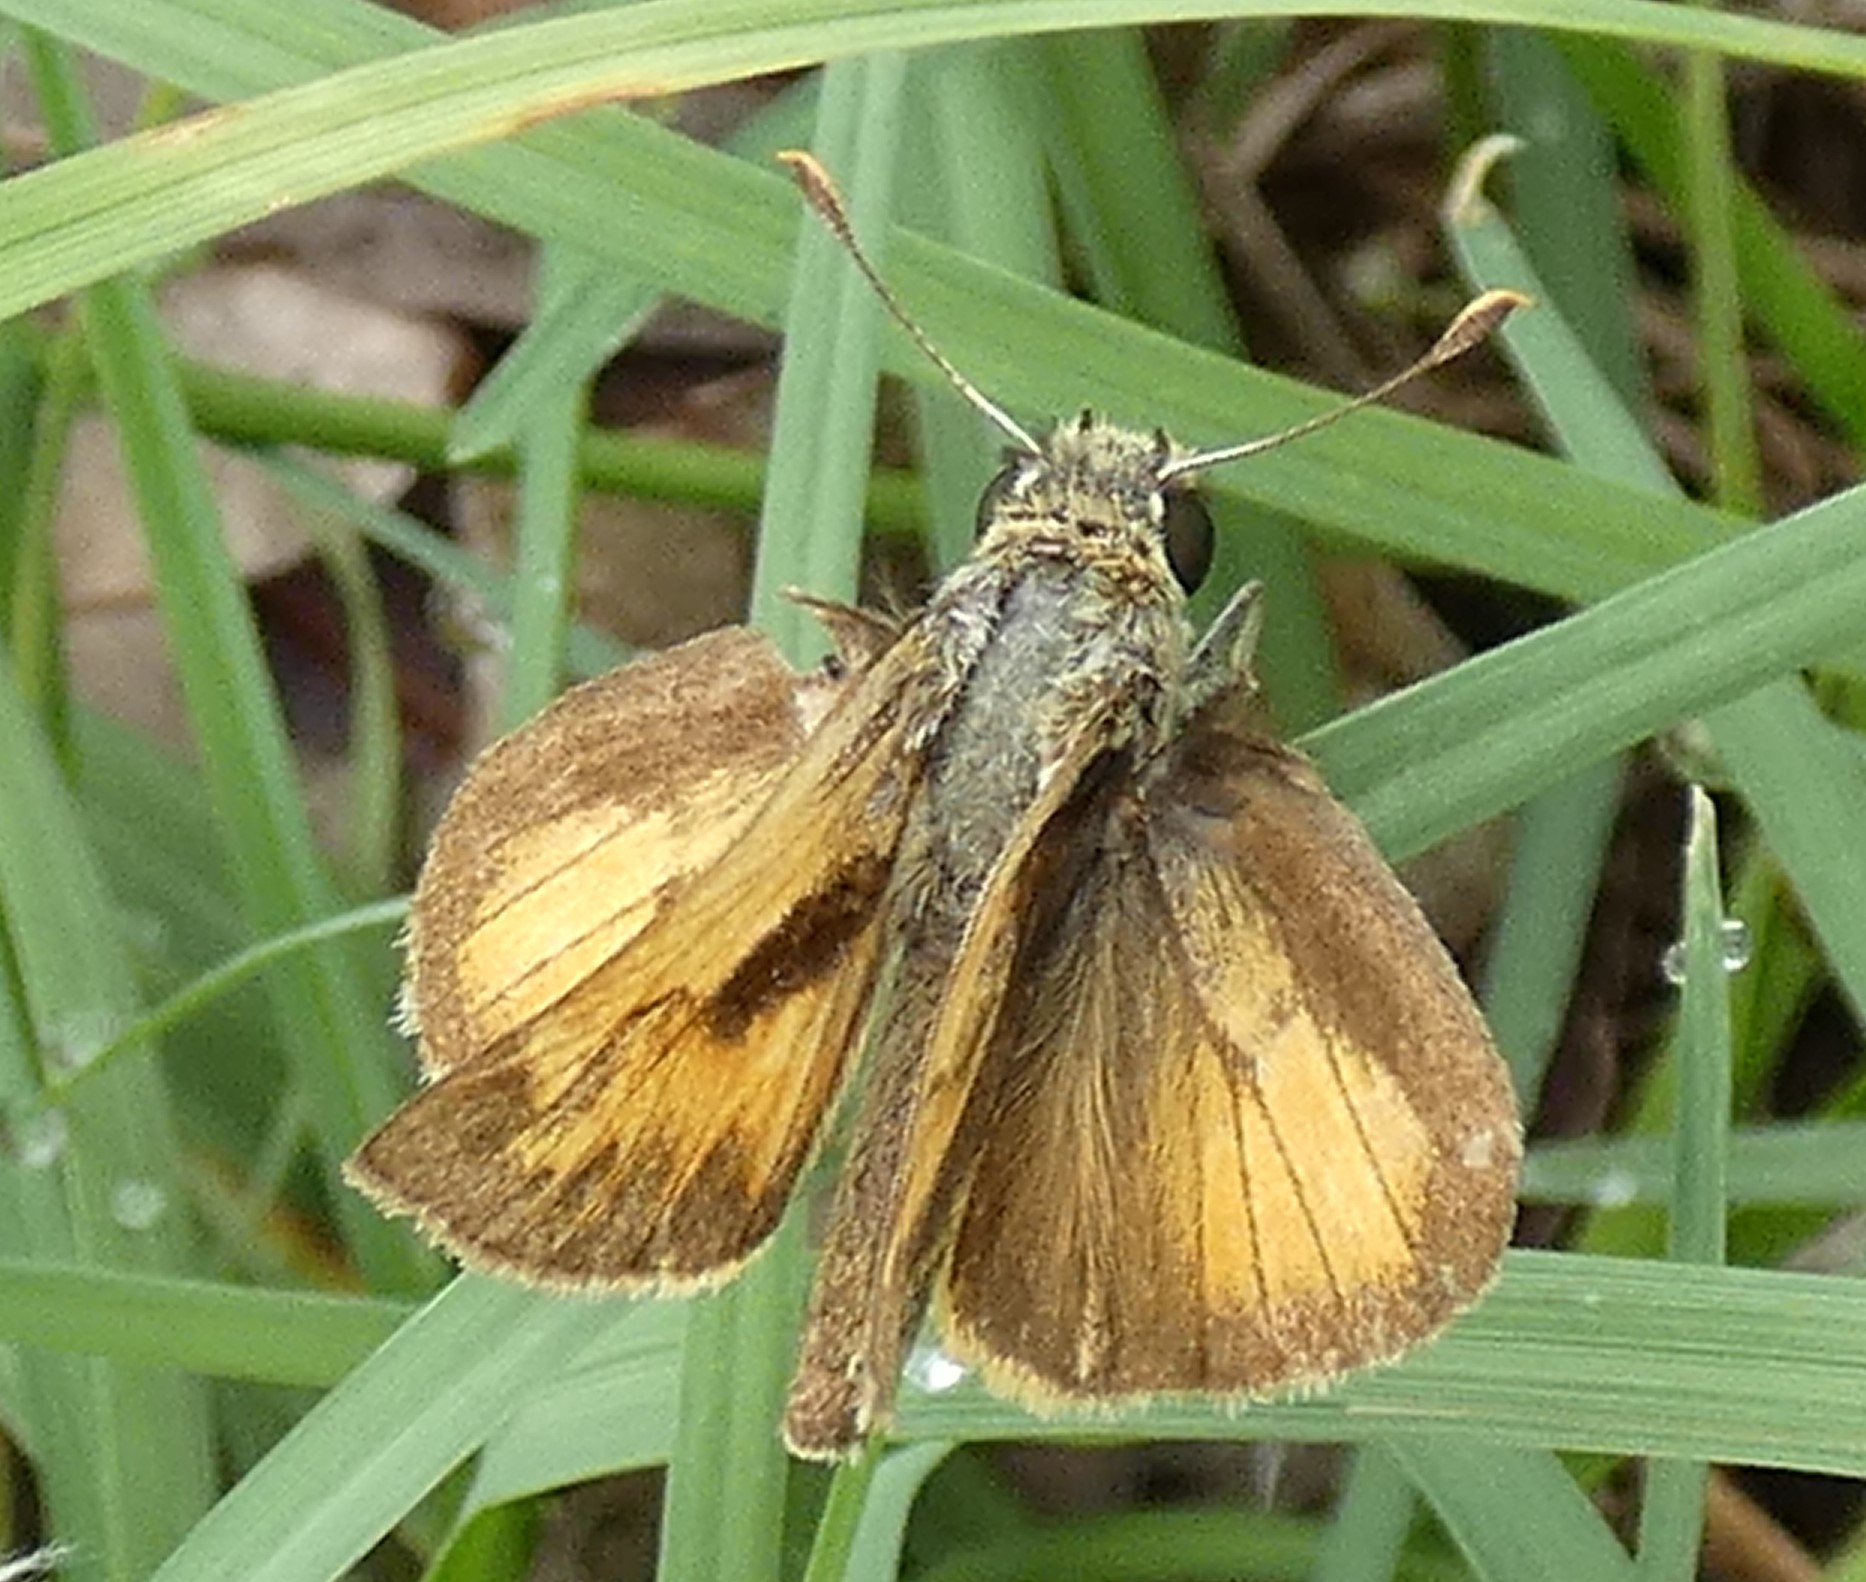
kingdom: Animalia
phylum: Arthropoda
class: Insecta
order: Lepidoptera
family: Hesperiidae
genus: Polites
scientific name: Polites vibex
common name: Whirlabout
